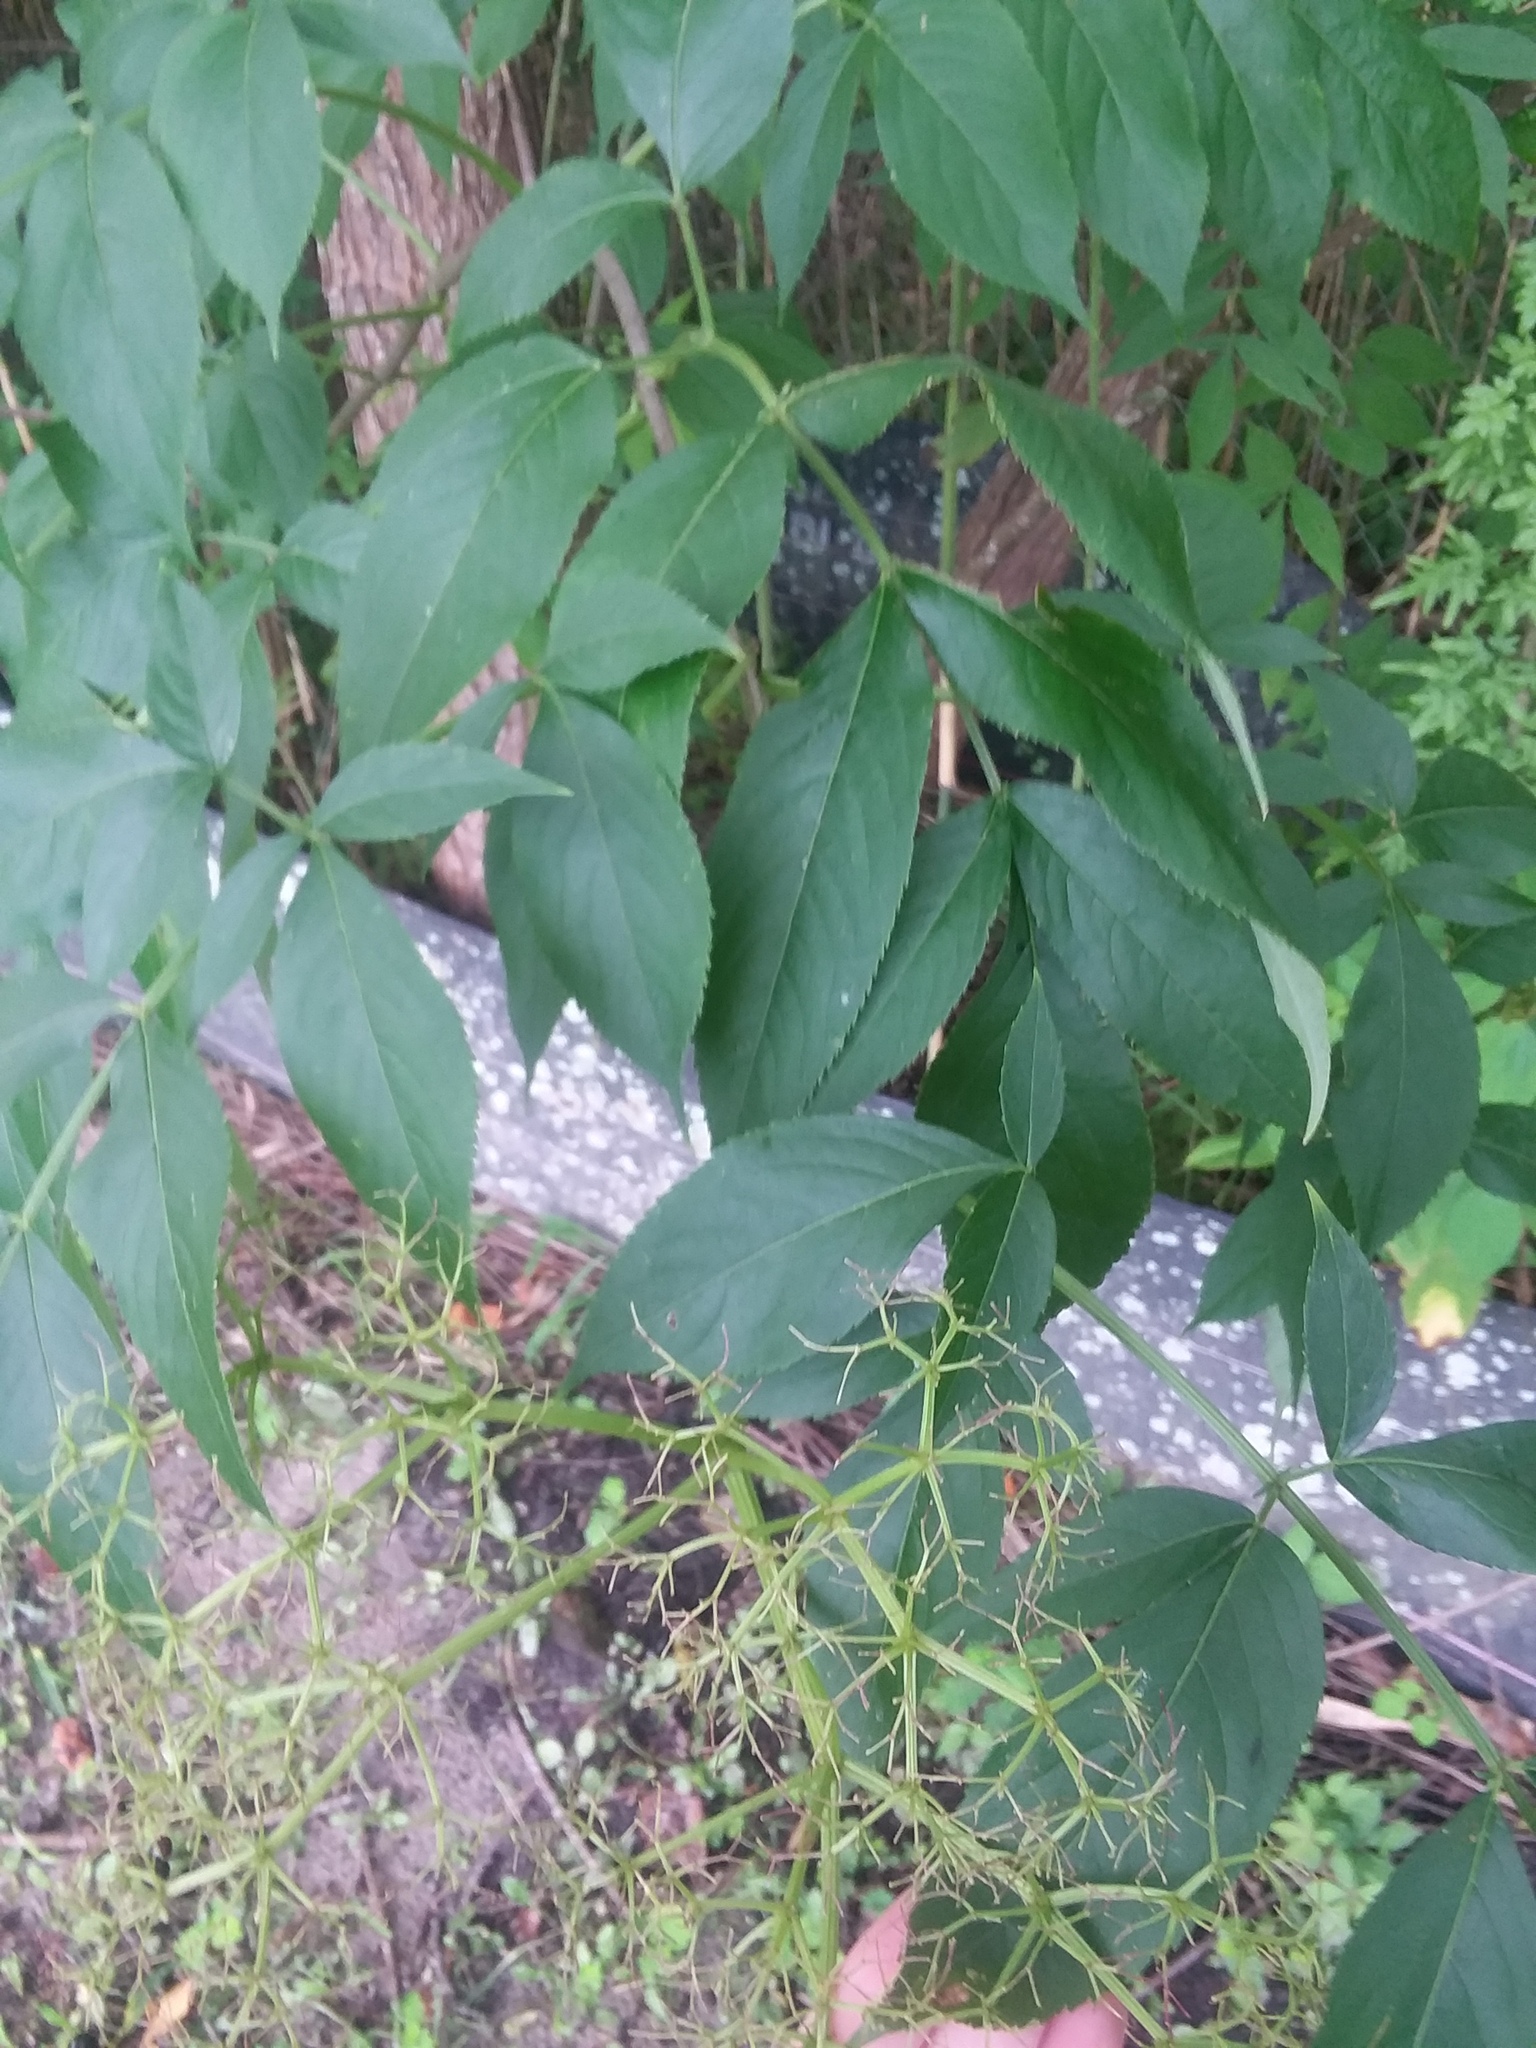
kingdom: Plantae
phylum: Tracheophyta
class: Magnoliopsida
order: Dipsacales
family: Viburnaceae
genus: Sambucus
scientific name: Sambucus canadensis
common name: American elder
